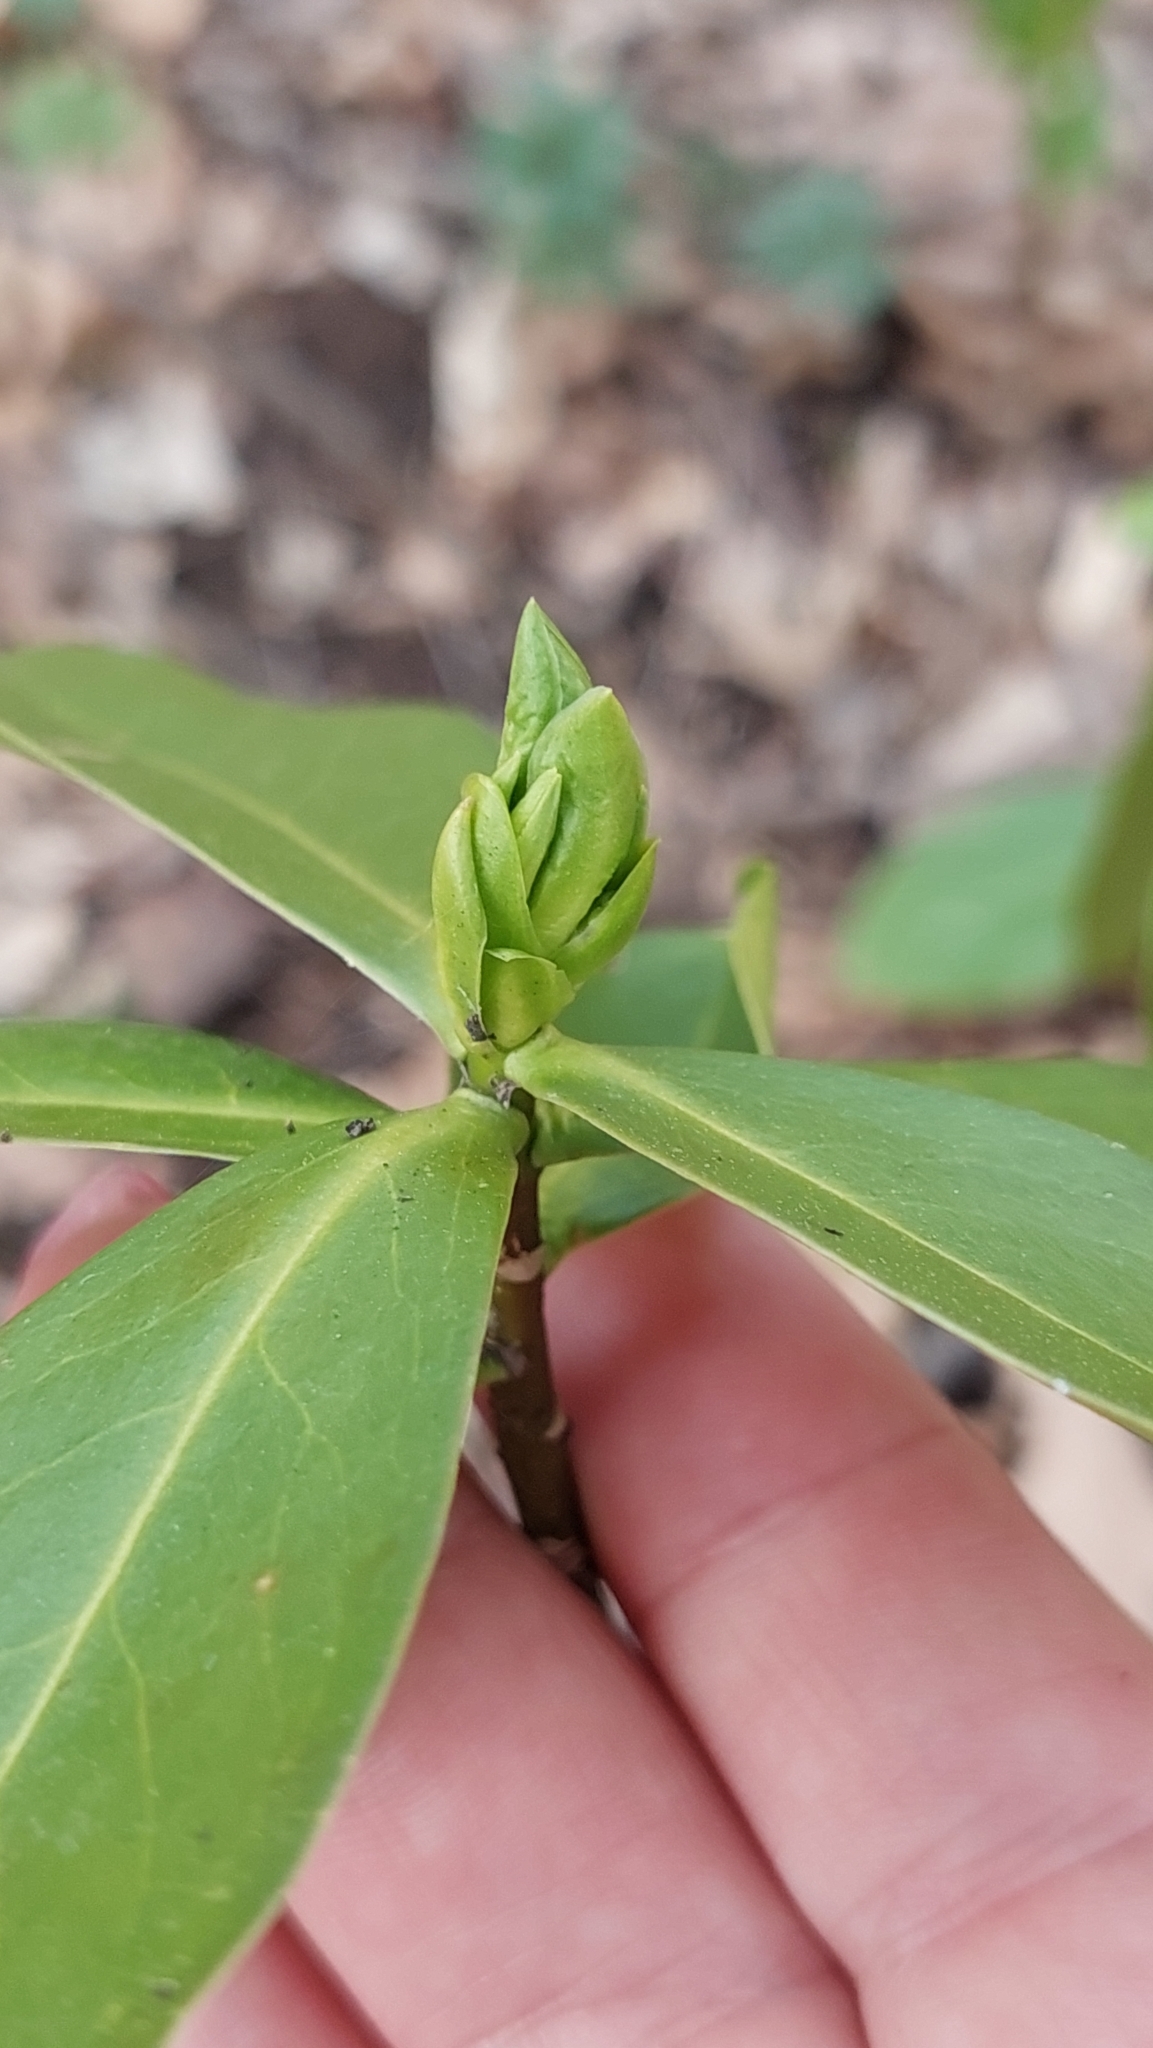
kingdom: Plantae
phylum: Tracheophyta
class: Magnoliopsida
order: Malvales
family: Thymelaeaceae
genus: Daphne
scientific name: Daphne pontica
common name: Twin-flower daphne
